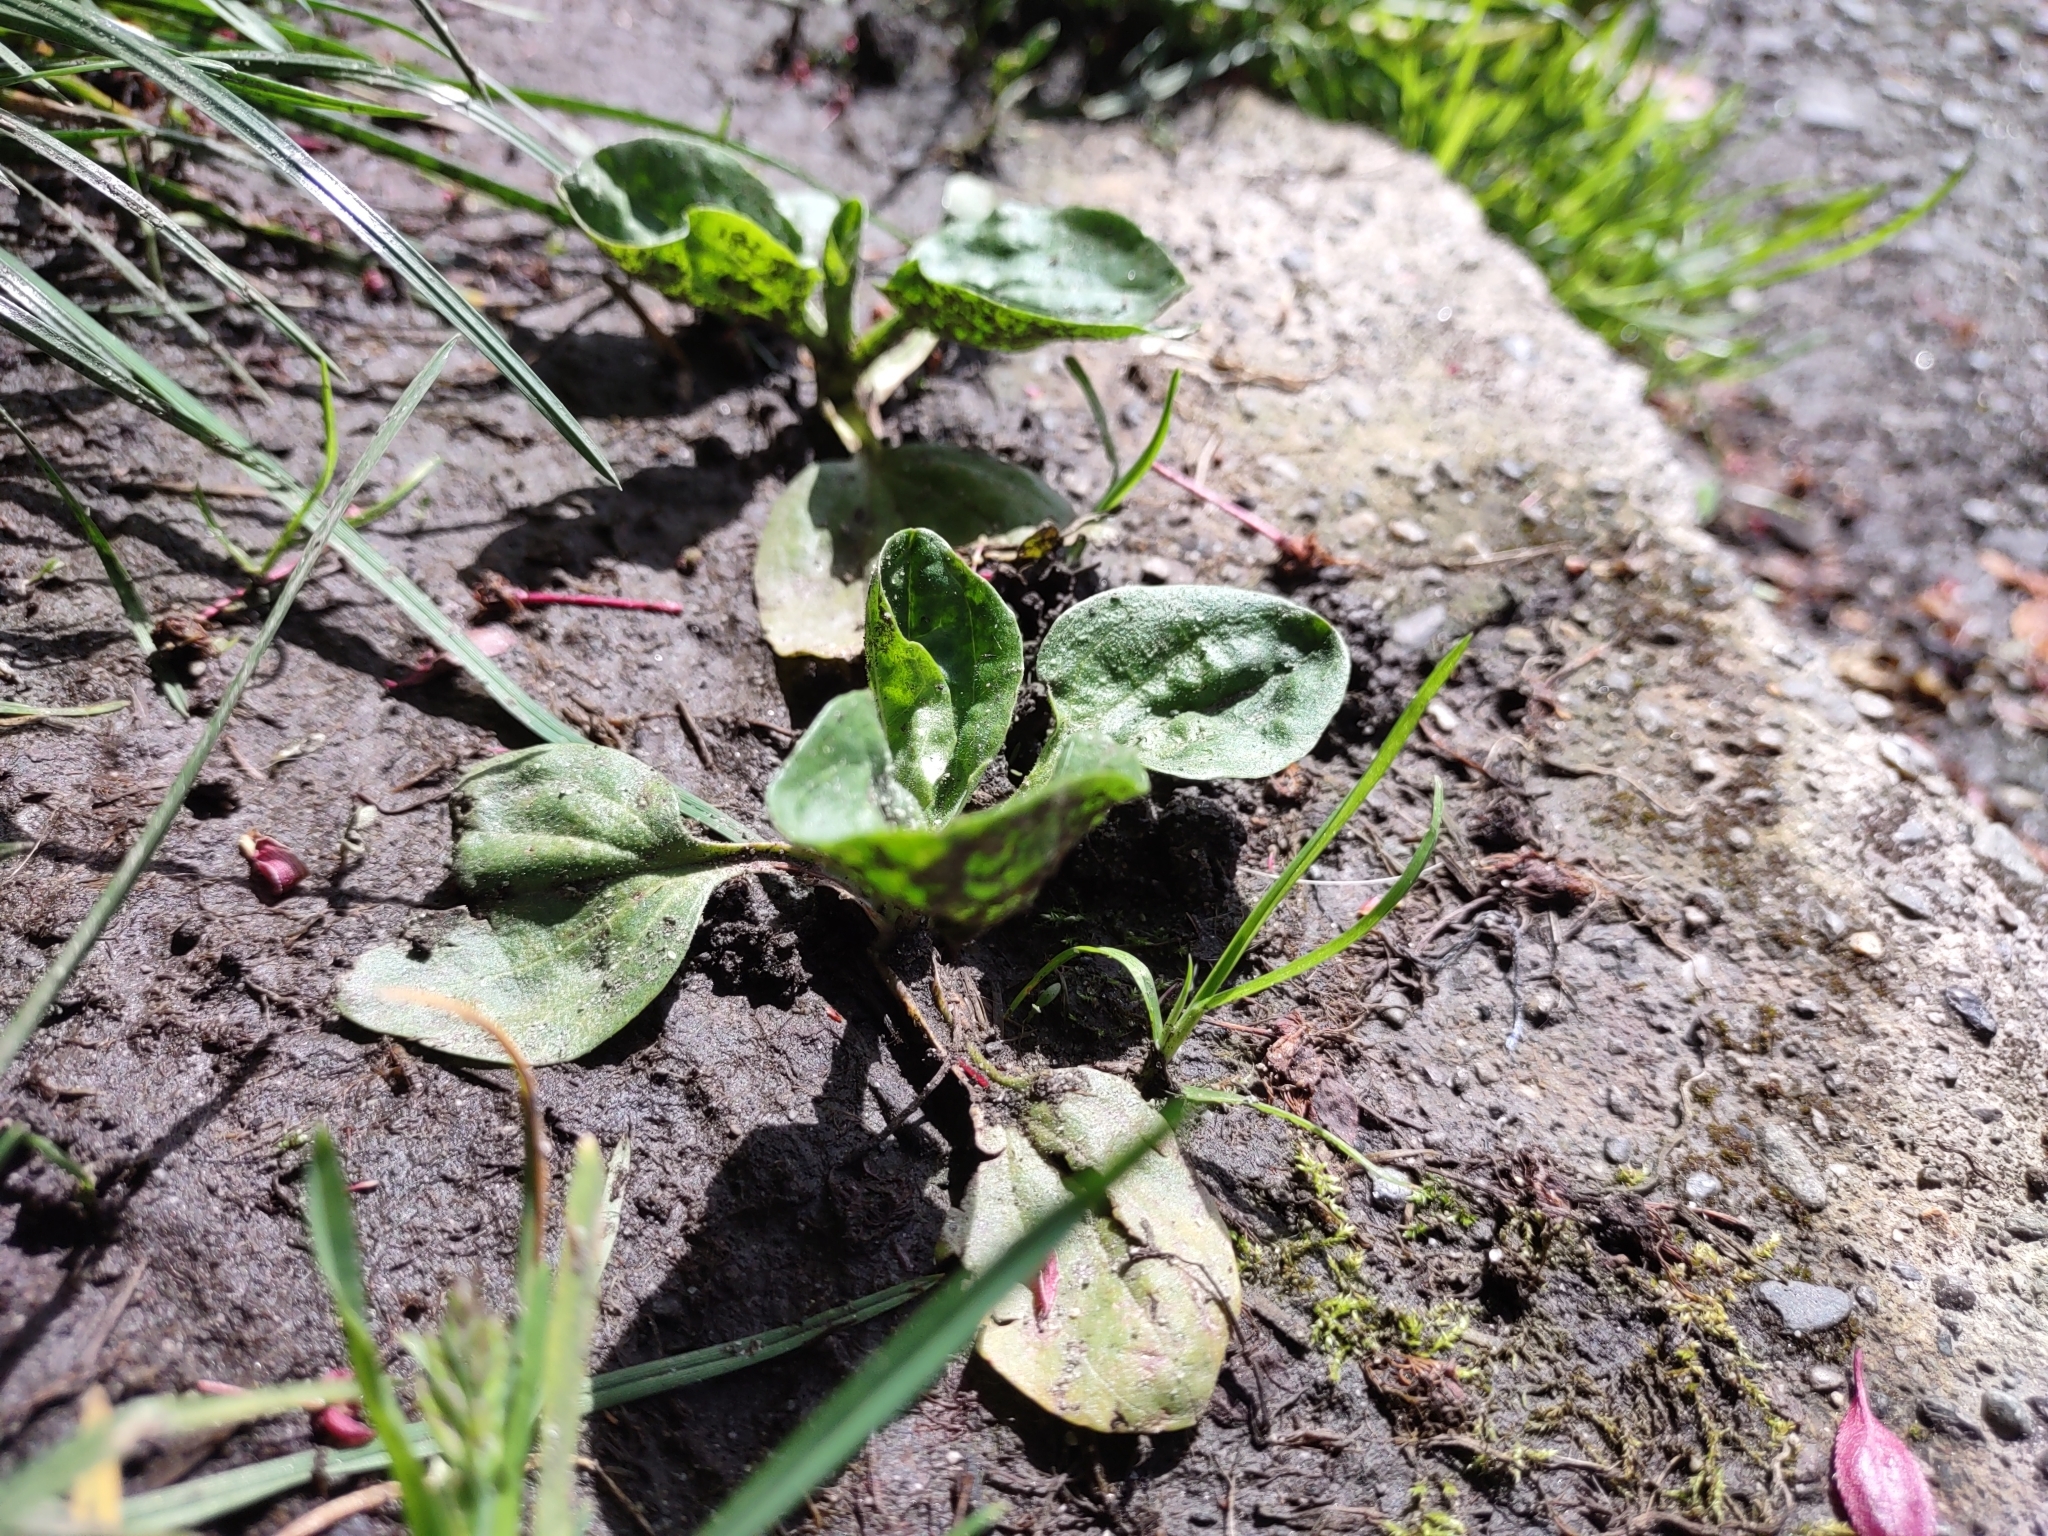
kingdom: Plantae
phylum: Tracheophyta
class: Magnoliopsida
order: Lamiales
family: Plantaginaceae
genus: Plantago
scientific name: Plantago major
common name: Common plantain
